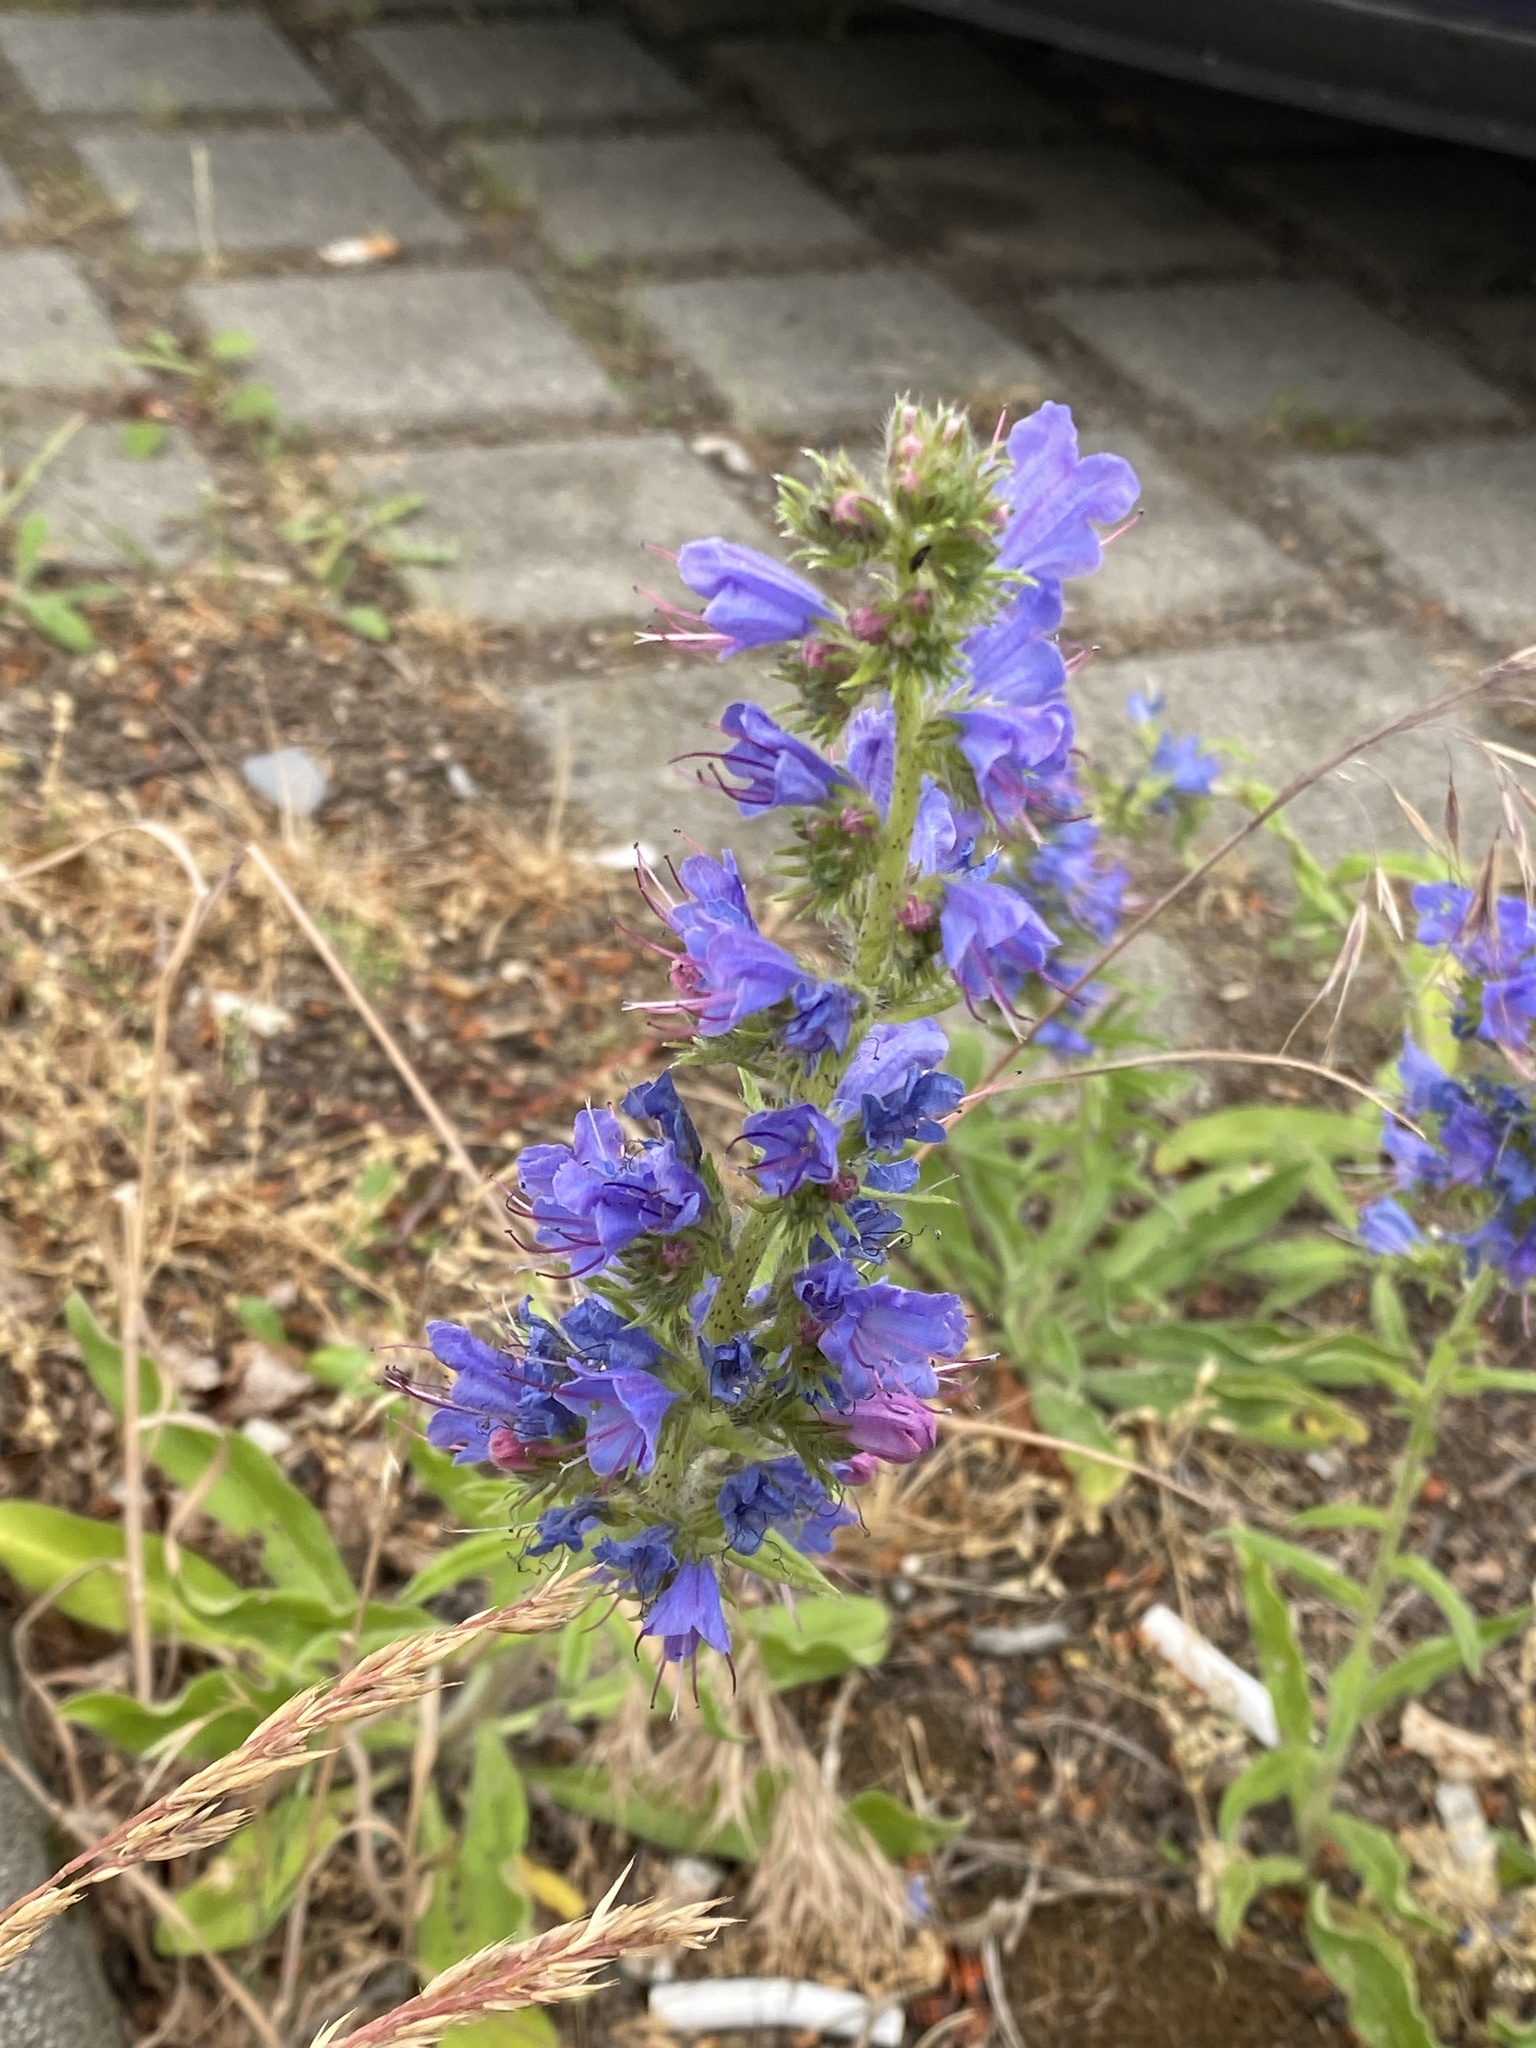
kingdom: Plantae
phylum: Tracheophyta
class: Magnoliopsida
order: Boraginales
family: Boraginaceae
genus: Echium
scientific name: Echium vulgare
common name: Common viper's bugloss
